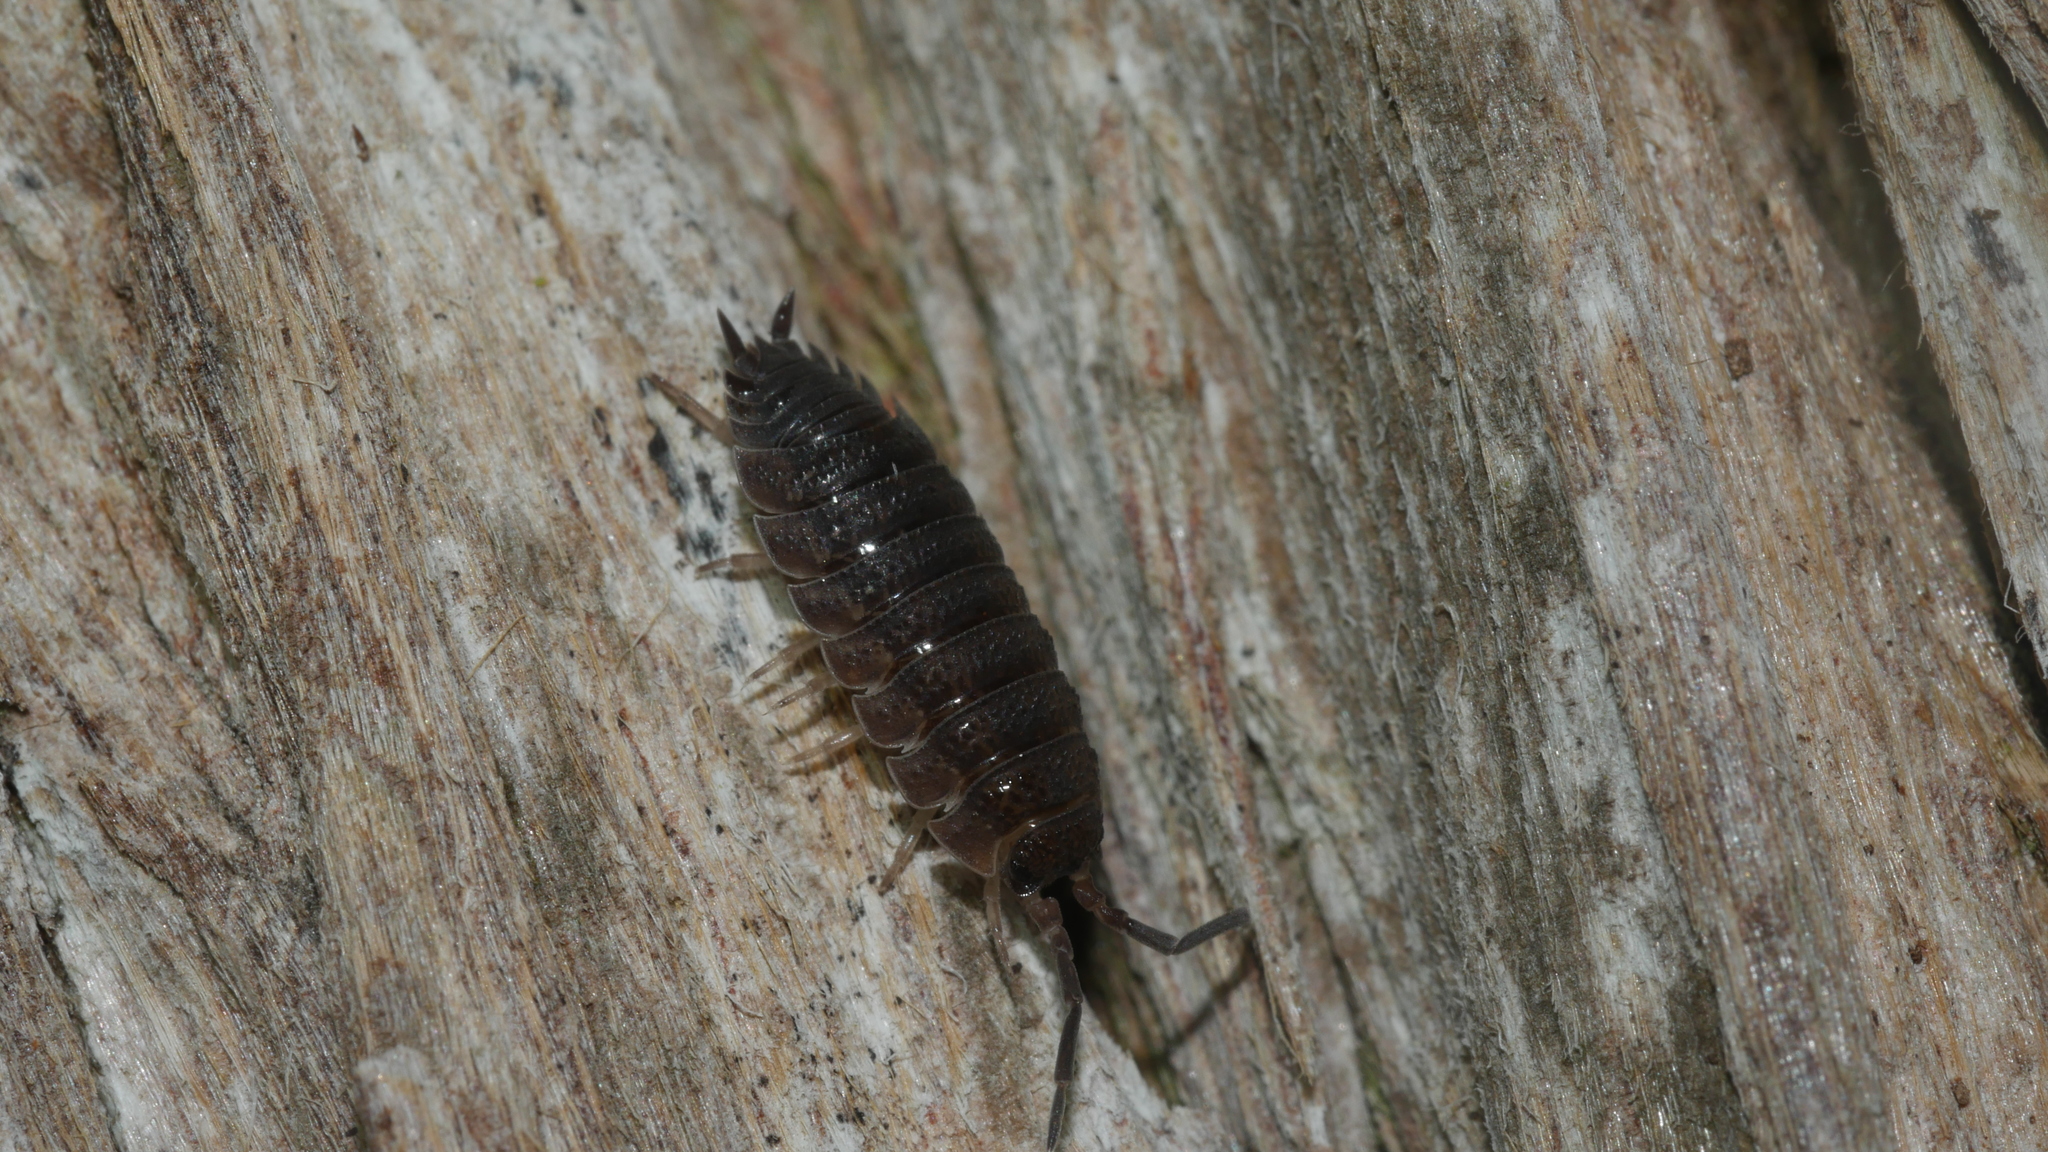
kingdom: Animalia
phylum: Arthropoda
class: Malacostraca
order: Isopoda
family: Porcellionidae
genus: Porcellio
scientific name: Porcellio scaber
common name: Common rough woodlouse
